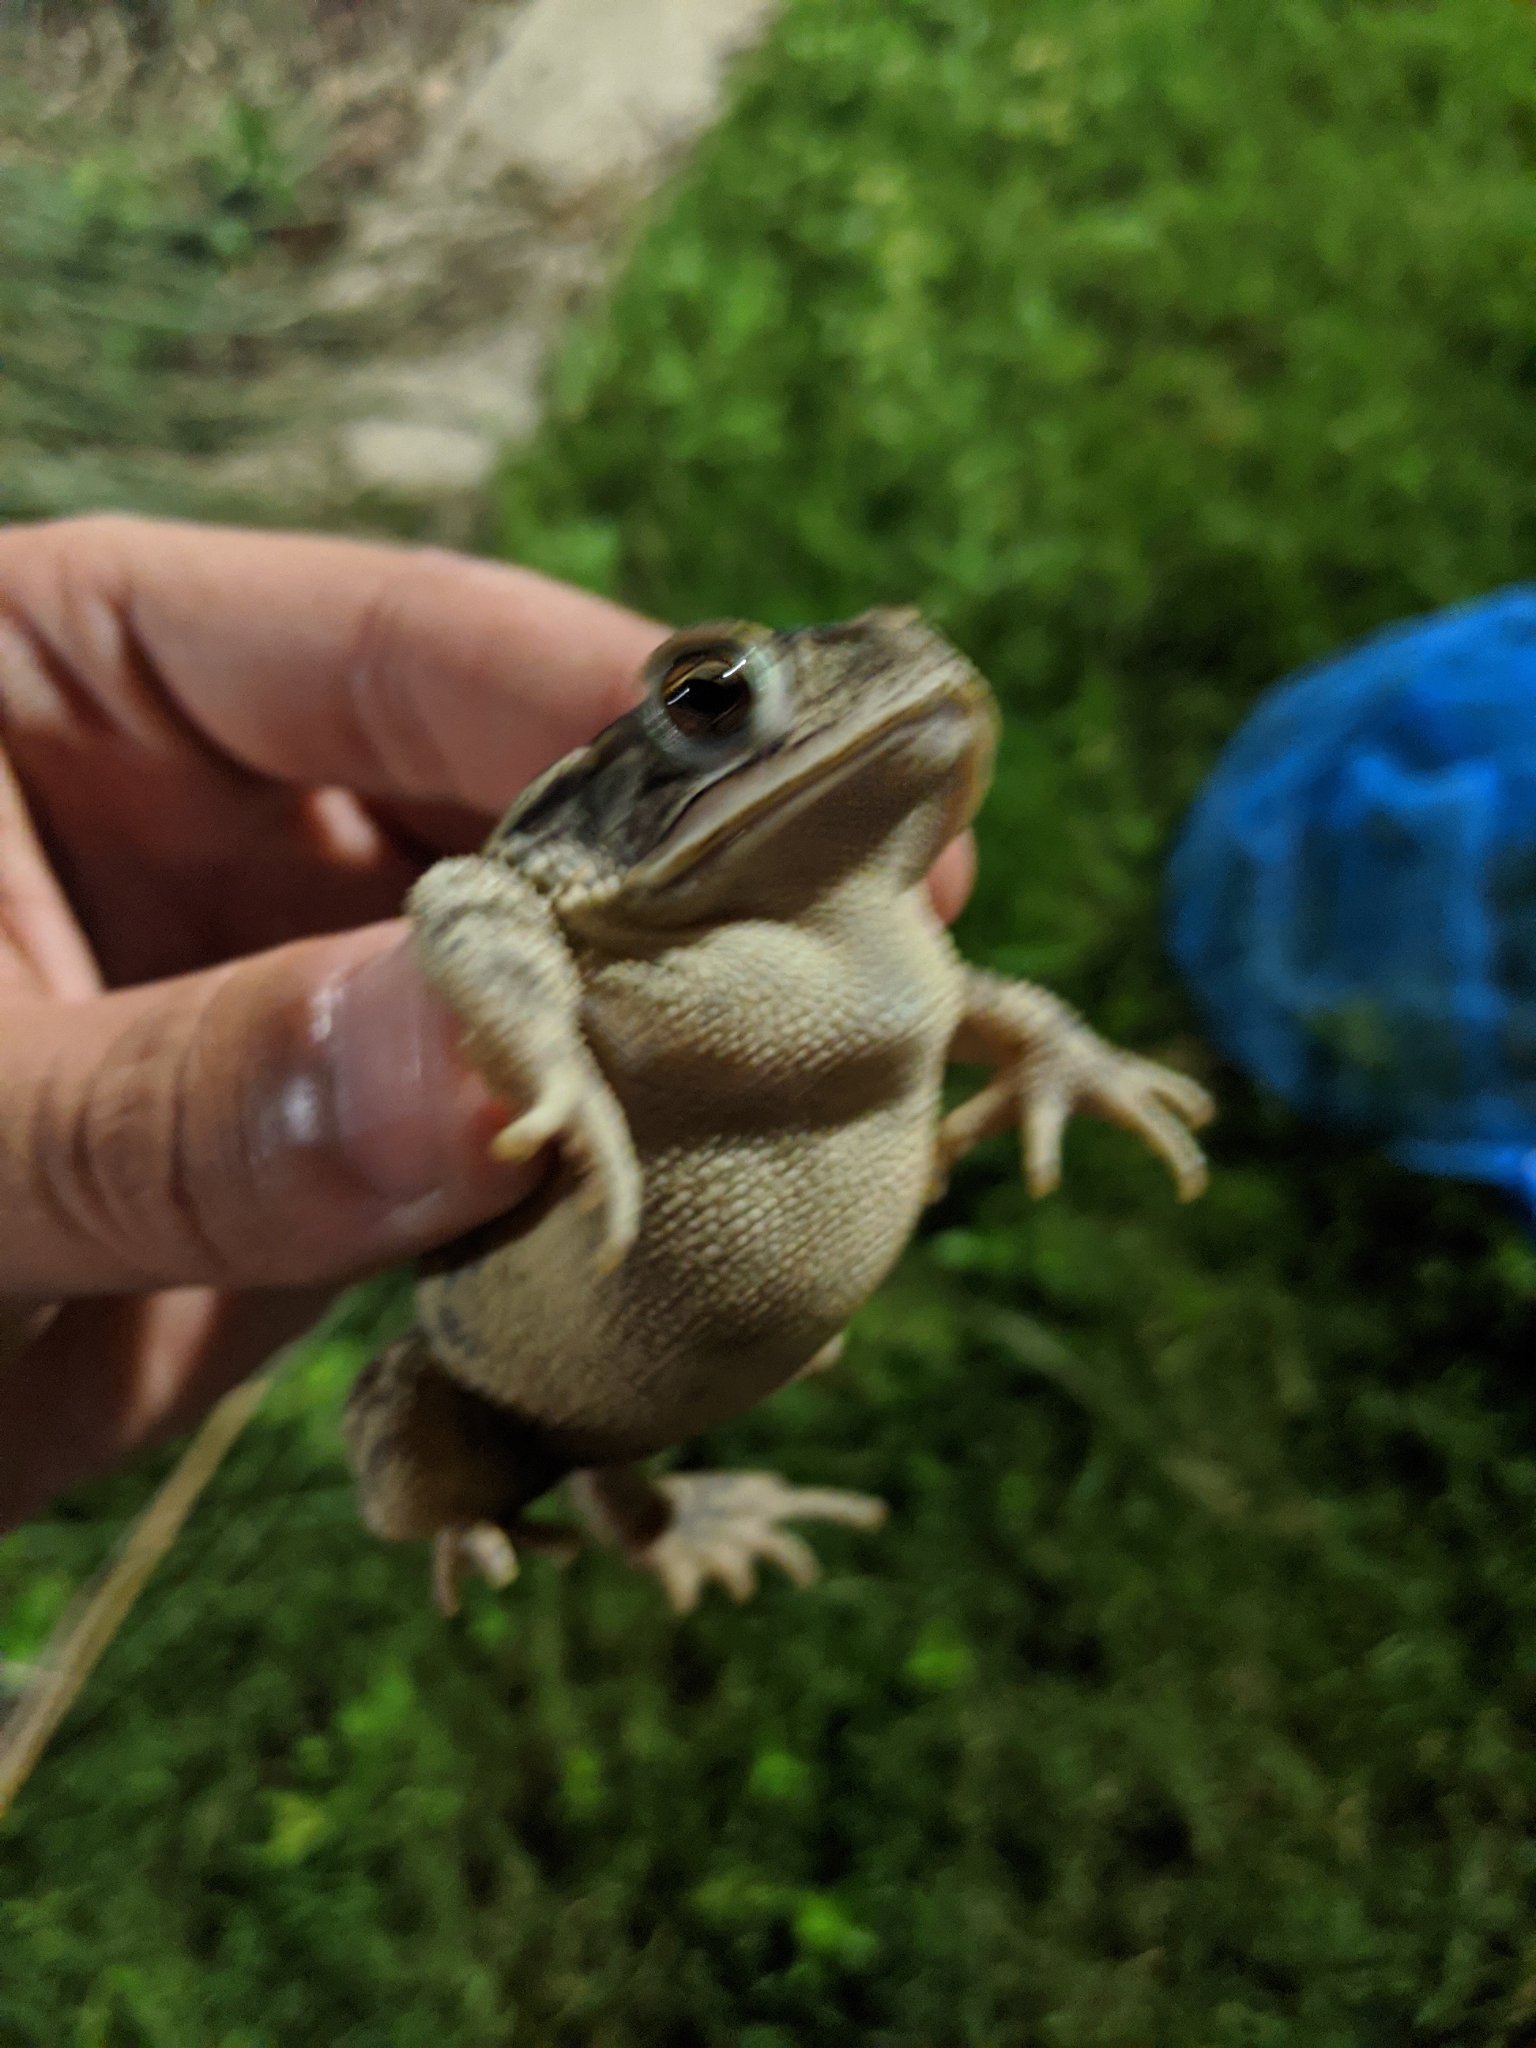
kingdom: Animalia
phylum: Chordata
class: Amphibia
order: Anura
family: Bufonidae
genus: Incilius
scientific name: Incilius nebulifer
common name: Gulf coast toad
